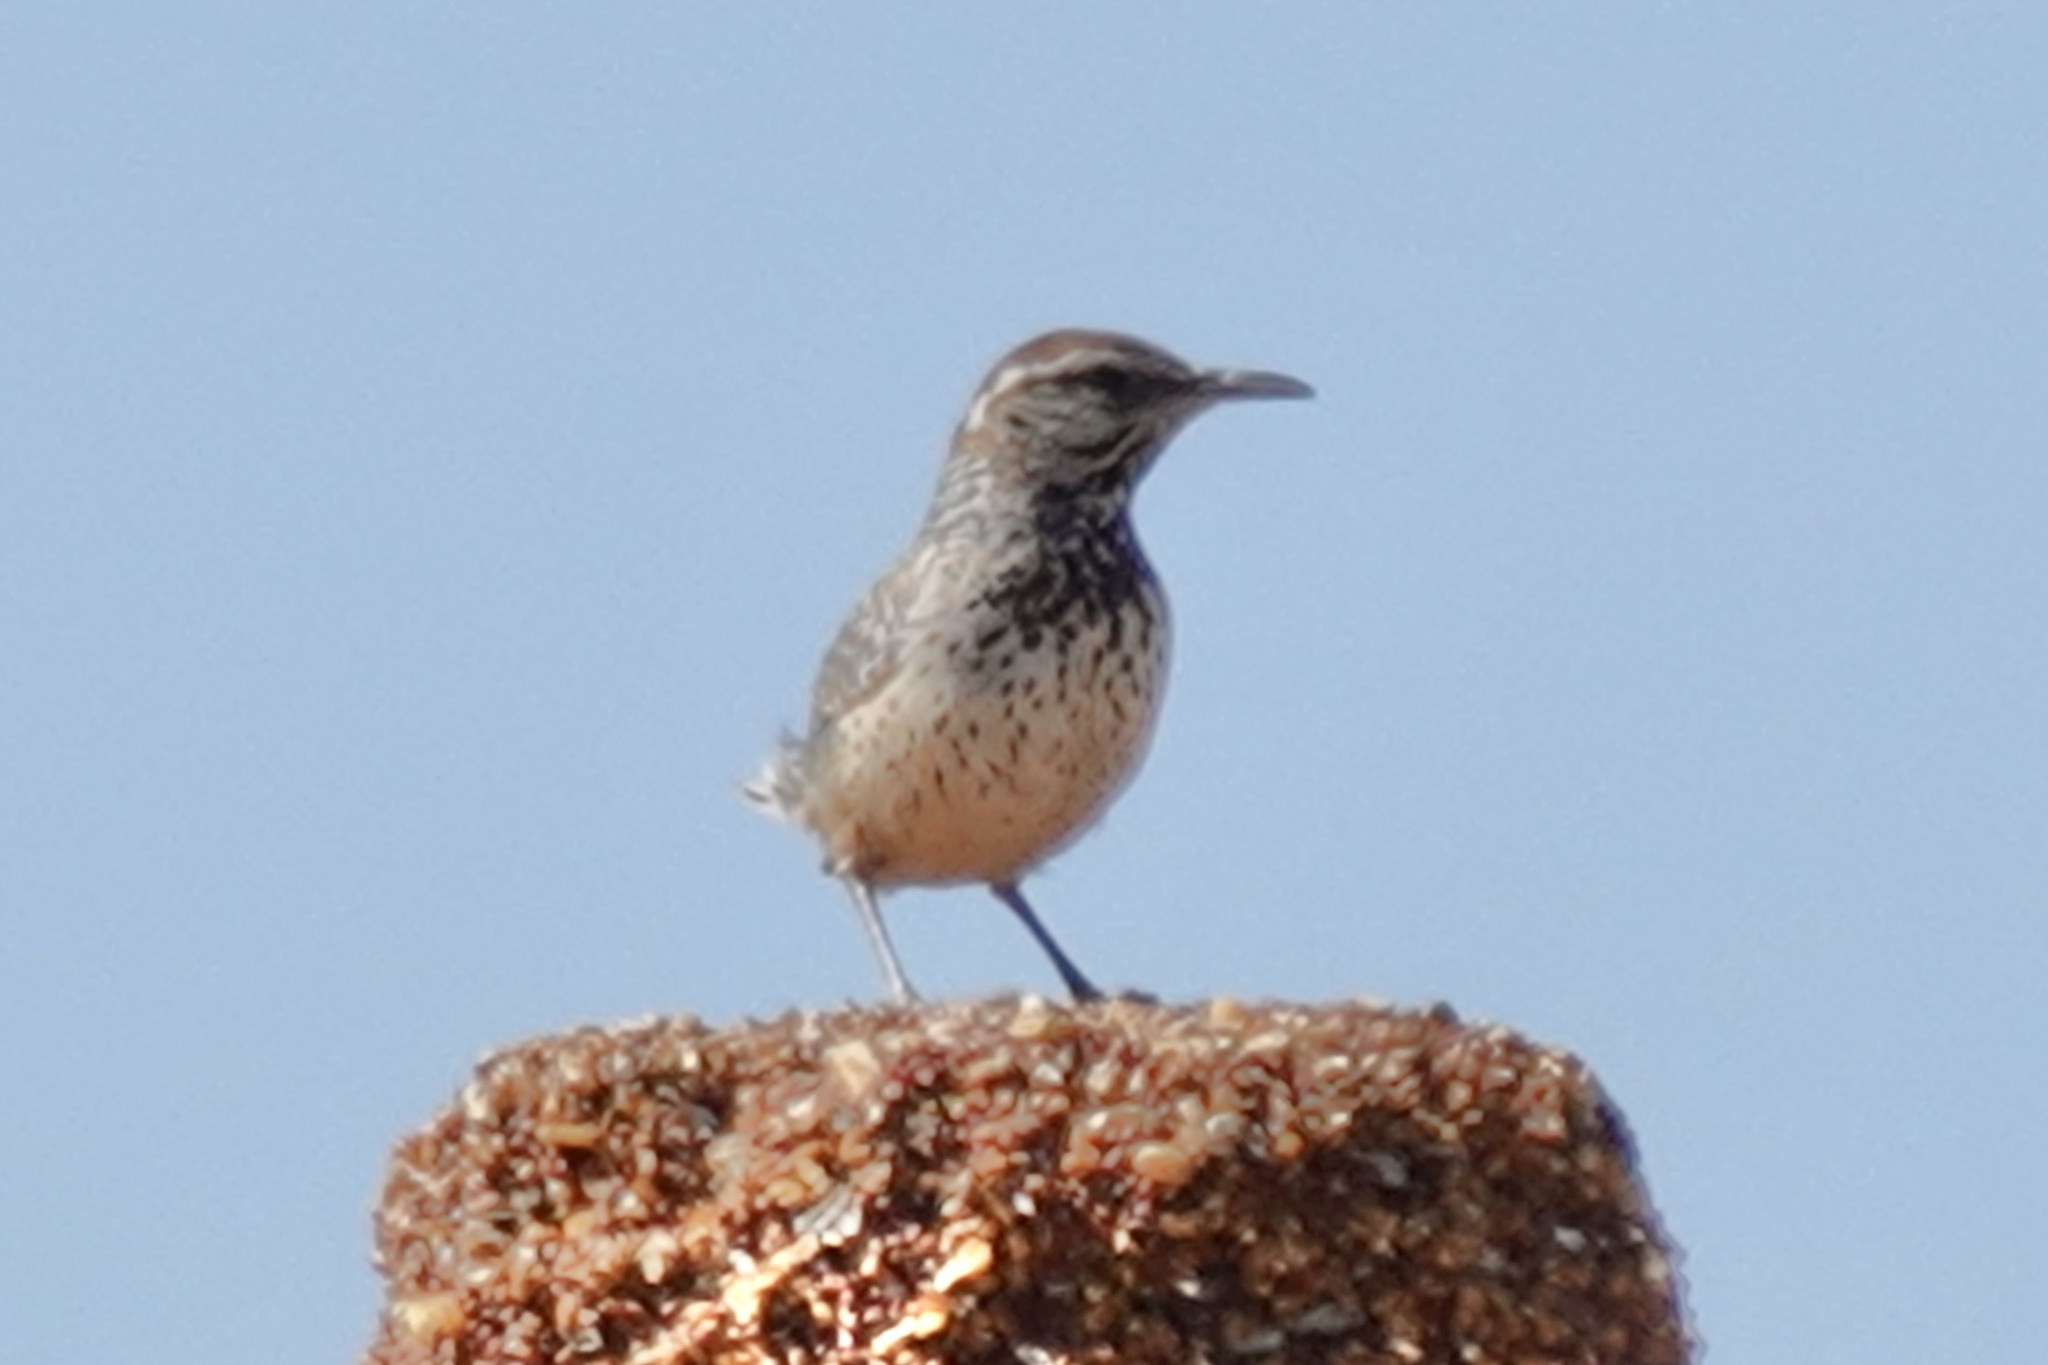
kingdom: Animalia
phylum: Chordata
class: Aves
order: Passeriformes
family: Troglodytidae
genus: Campylorhynchus
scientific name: Campylorhynchus brunneicapillus
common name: Cactus wren
